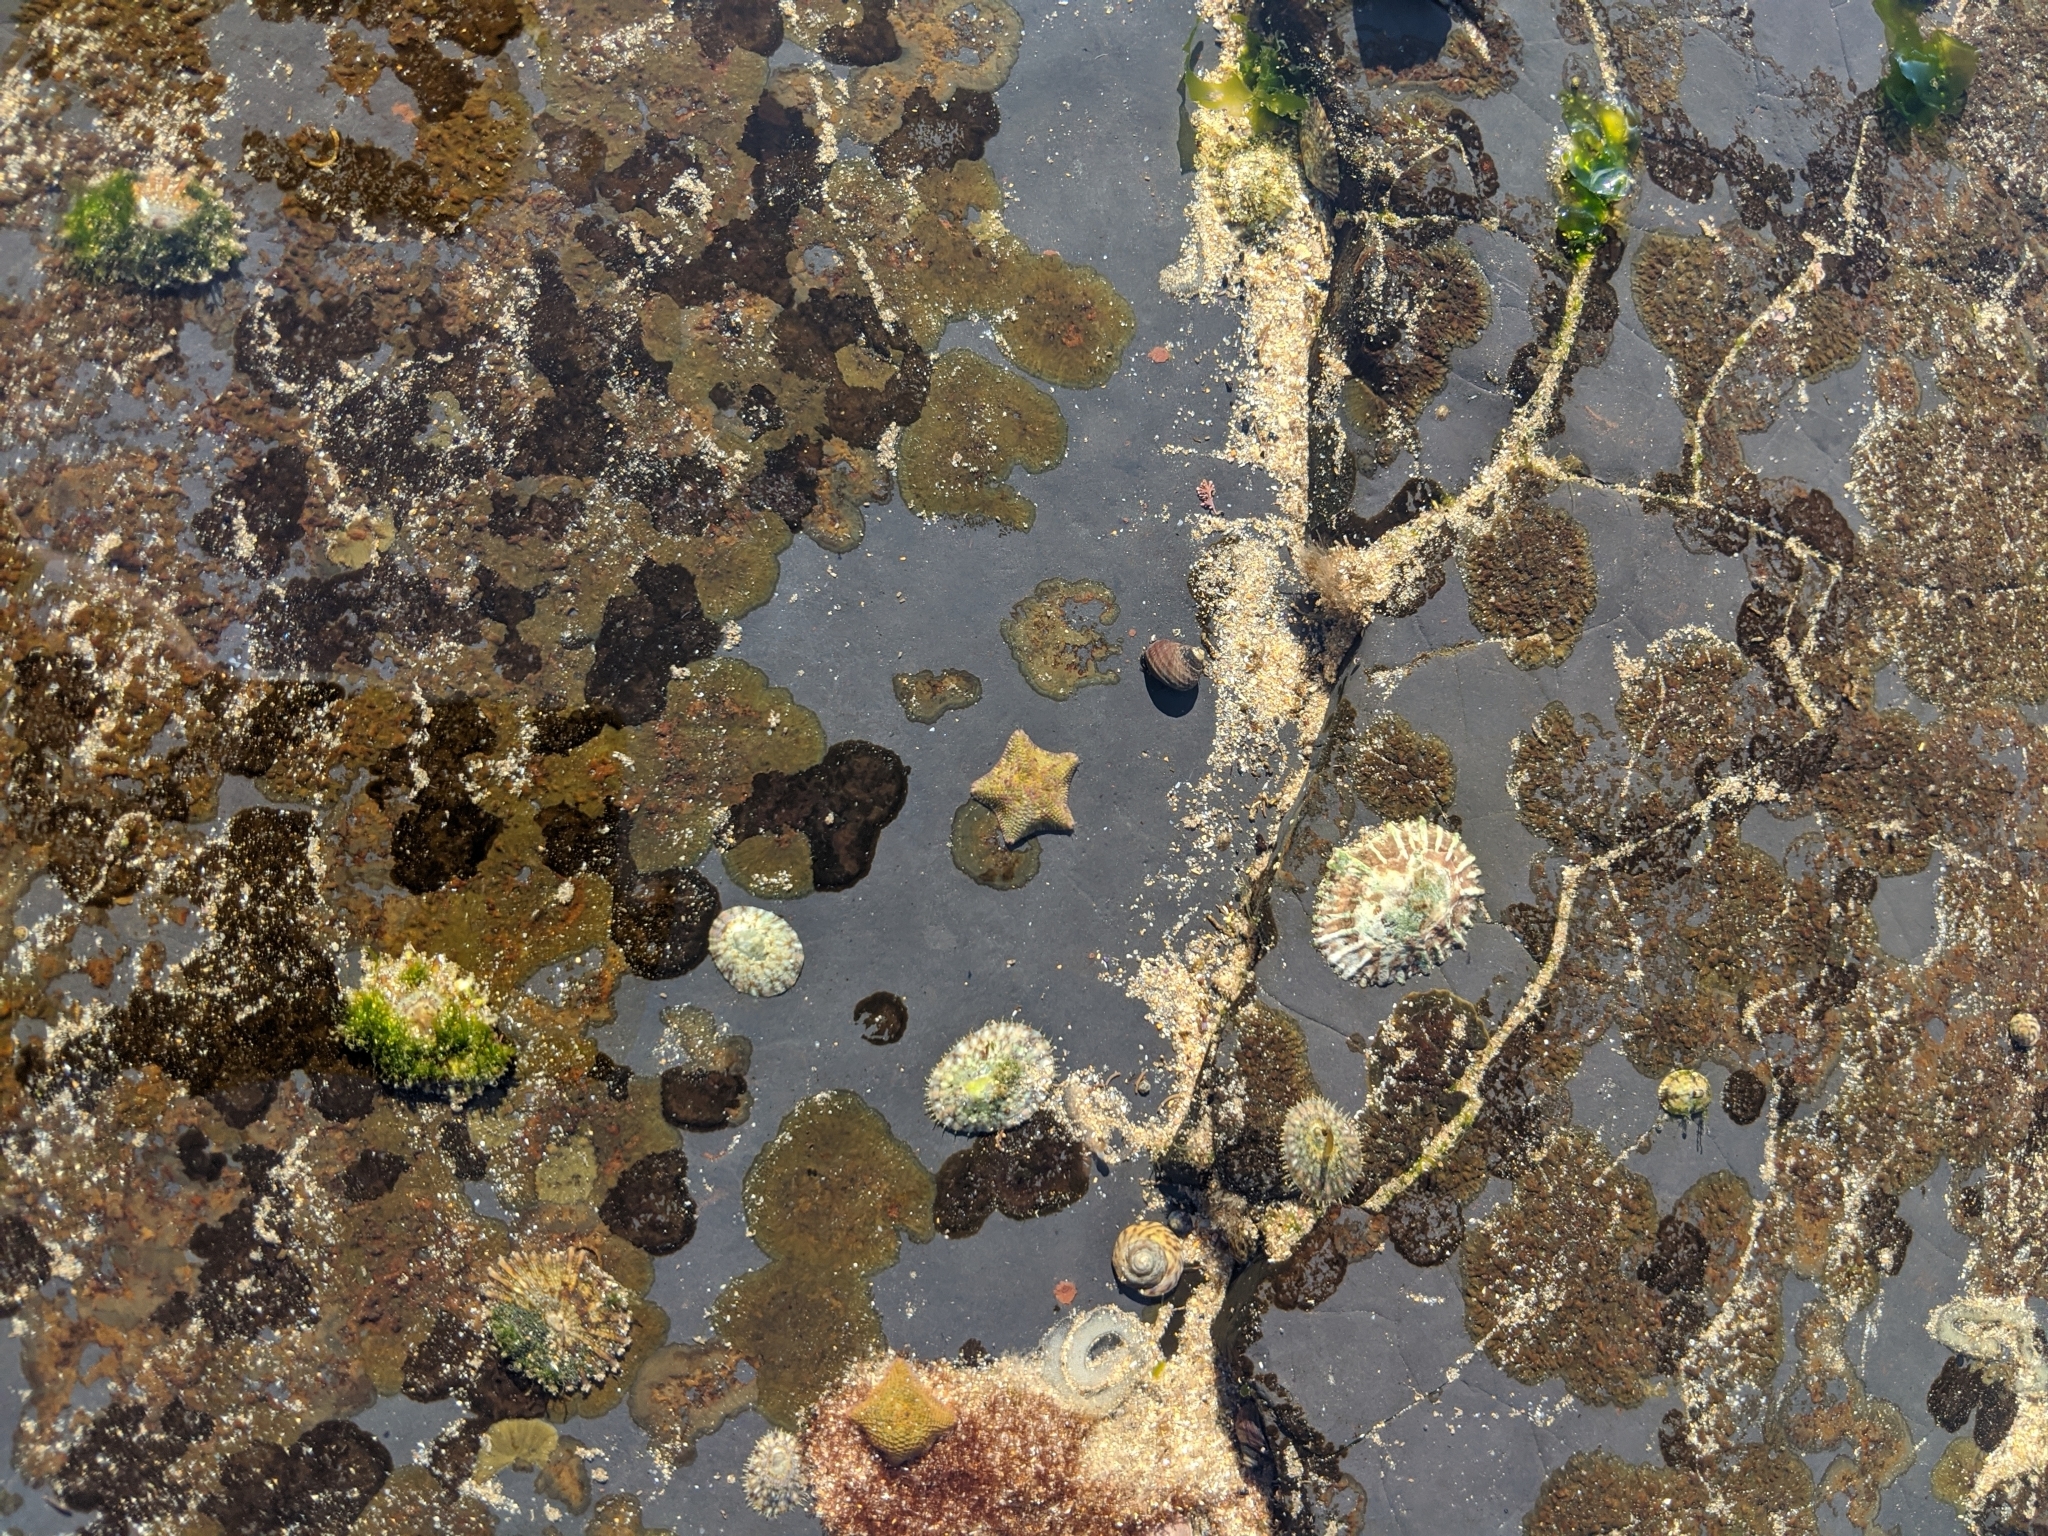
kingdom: Animalia
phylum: Echinodermata
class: Asteroidea
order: Valvatida
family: Asterinidae
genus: Parvulastra
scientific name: Parvulastra exigua
